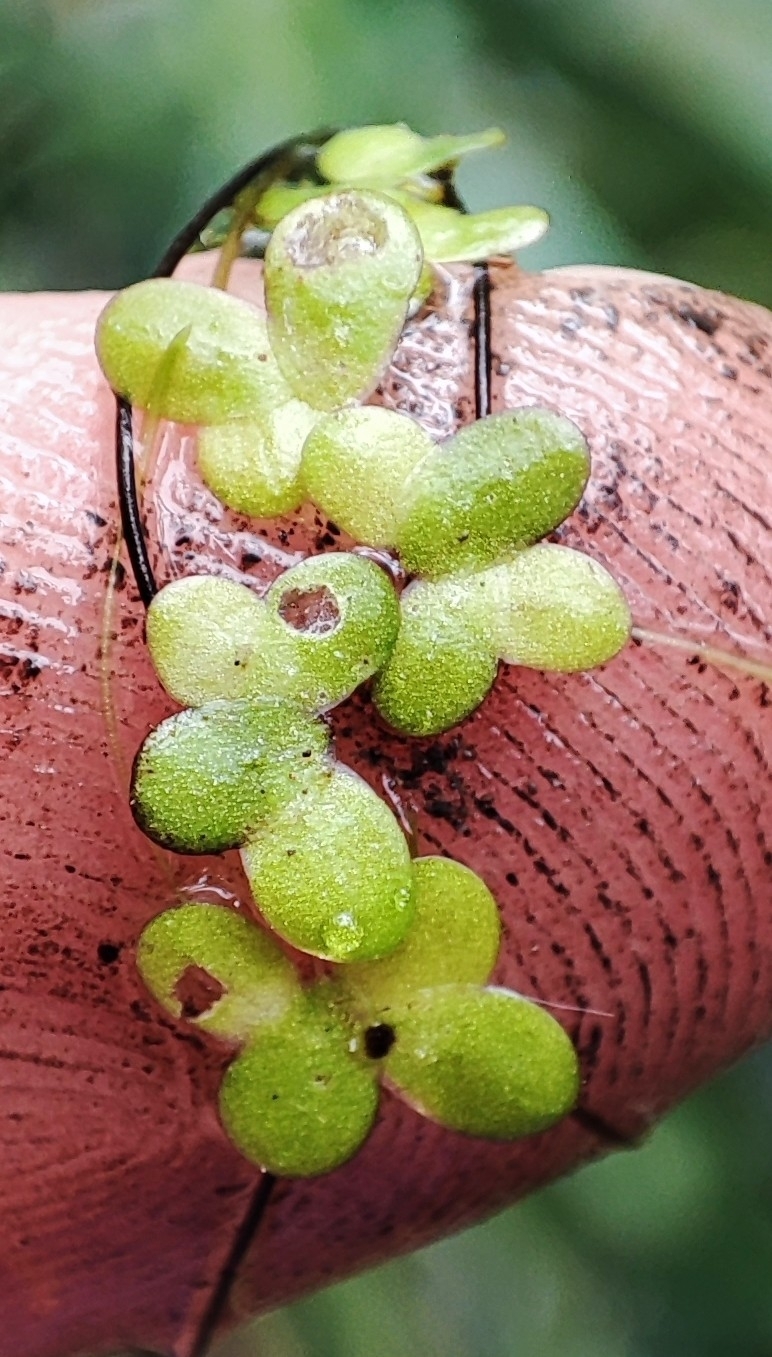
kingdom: Plantae
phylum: Tracheophyta
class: Liliopsida
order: Alismatales
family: Araceae
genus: Lemna
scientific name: Lemna turionifera
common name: Perennial duckweed
